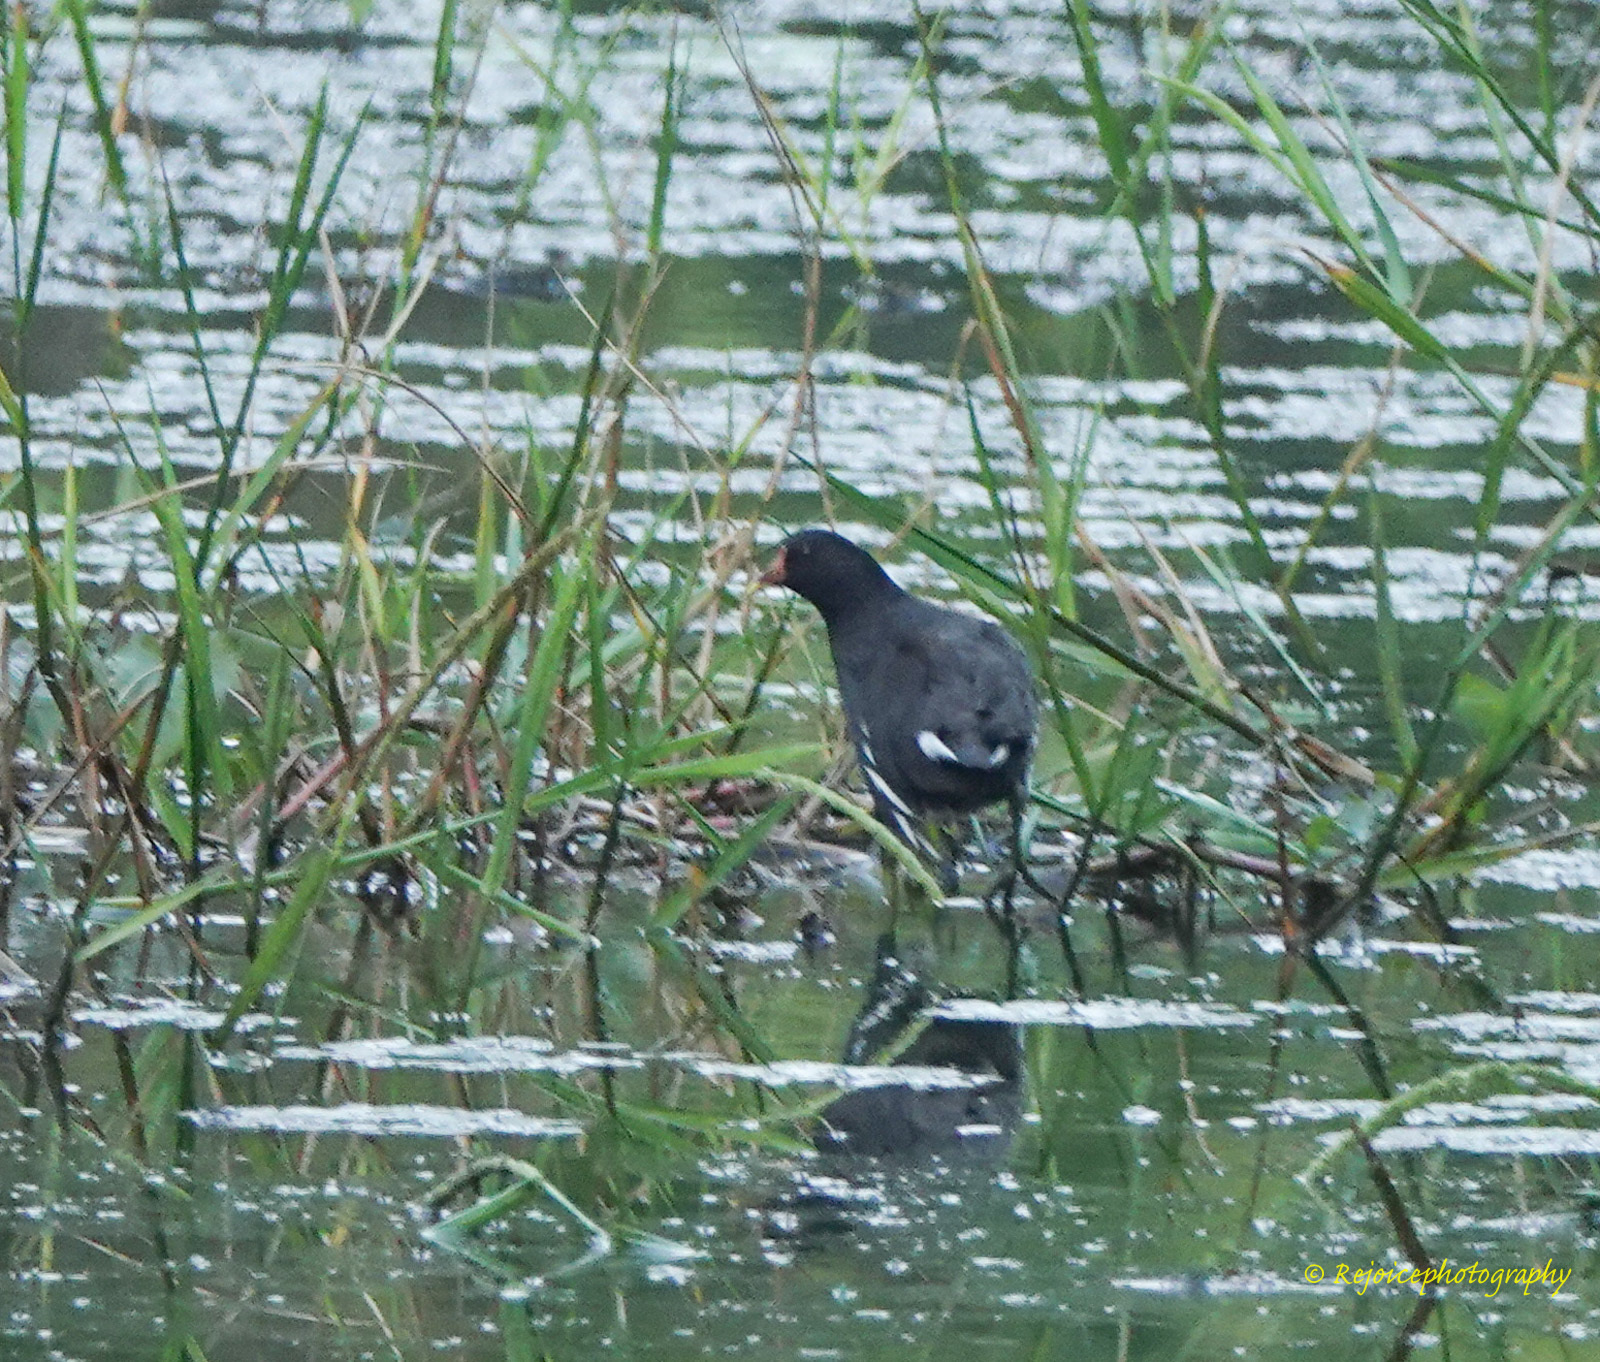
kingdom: Animalia
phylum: Chordata
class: Aves
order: Gruiformes
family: Rallidae
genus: Gallinula
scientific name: Gallinula chloropus
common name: Common moorhen
